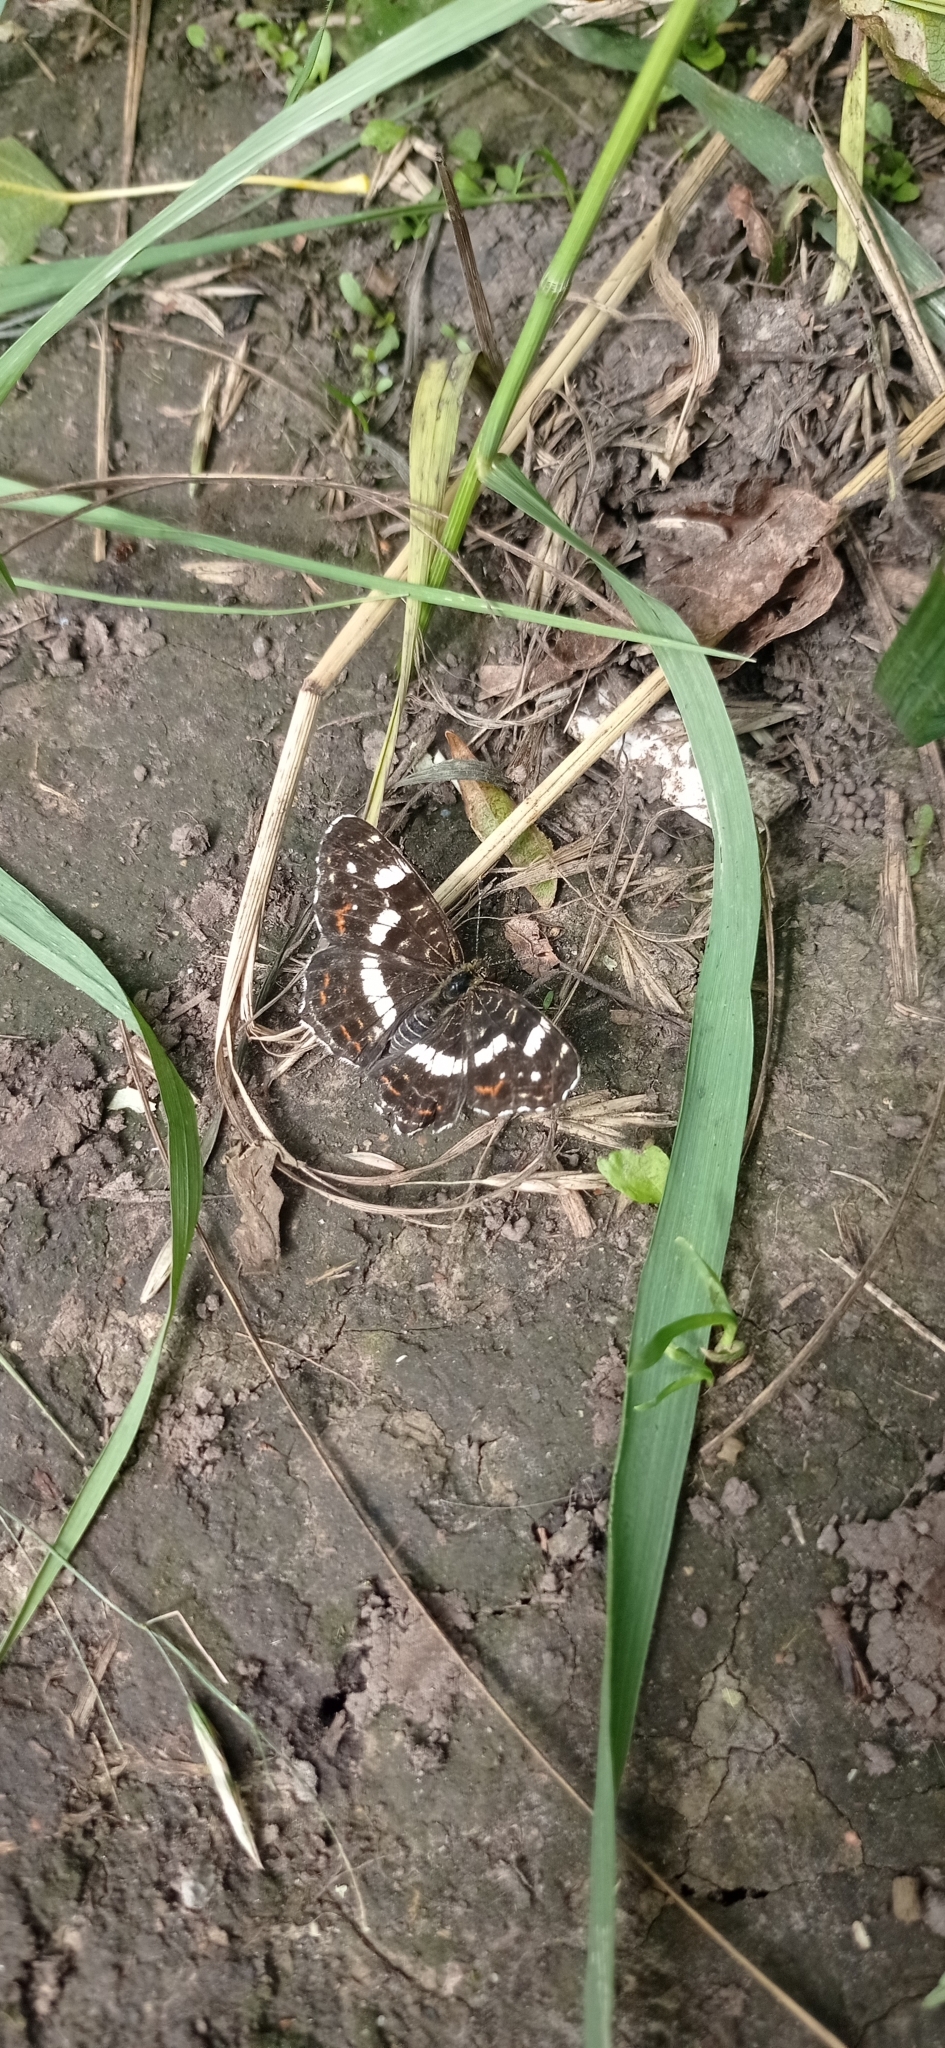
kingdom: Animalia
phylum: Arthropoda
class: Insecta
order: Lepidoptera
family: Nymphalidae
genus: Araschnia
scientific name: Araschnia levana
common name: Map butterfly
